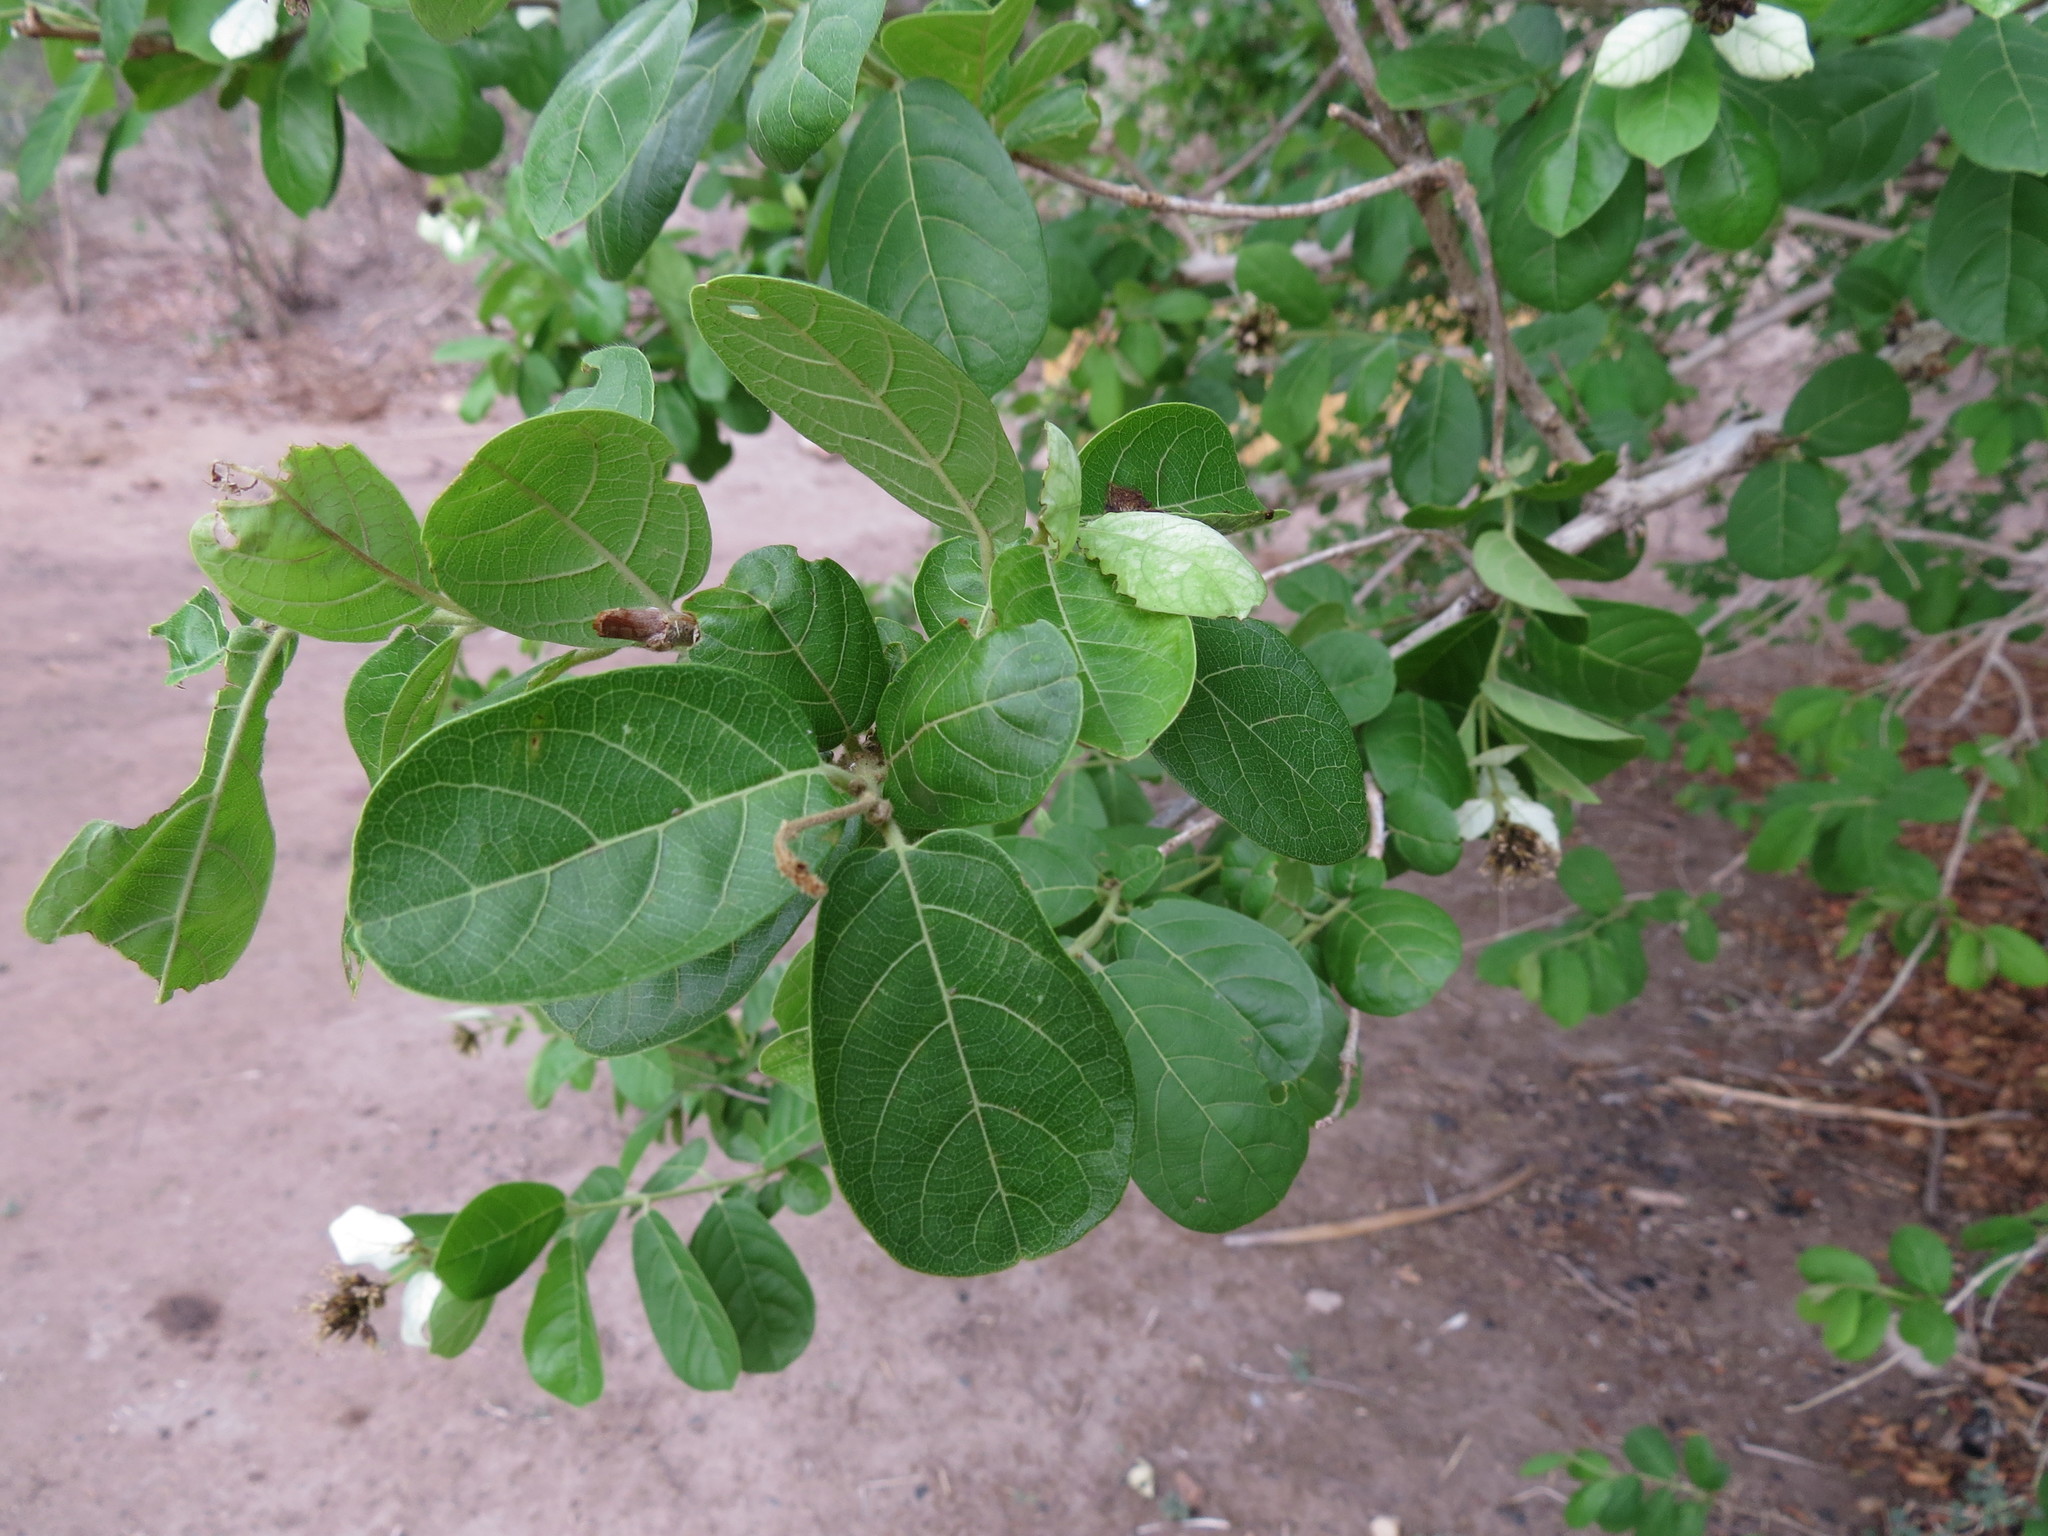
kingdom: Plantae
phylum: Tracheophyta
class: Magnoliopsida
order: Myrtales
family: Combretaceae
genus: Combretum
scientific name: Combretum obovatum
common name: Spiny combretum
